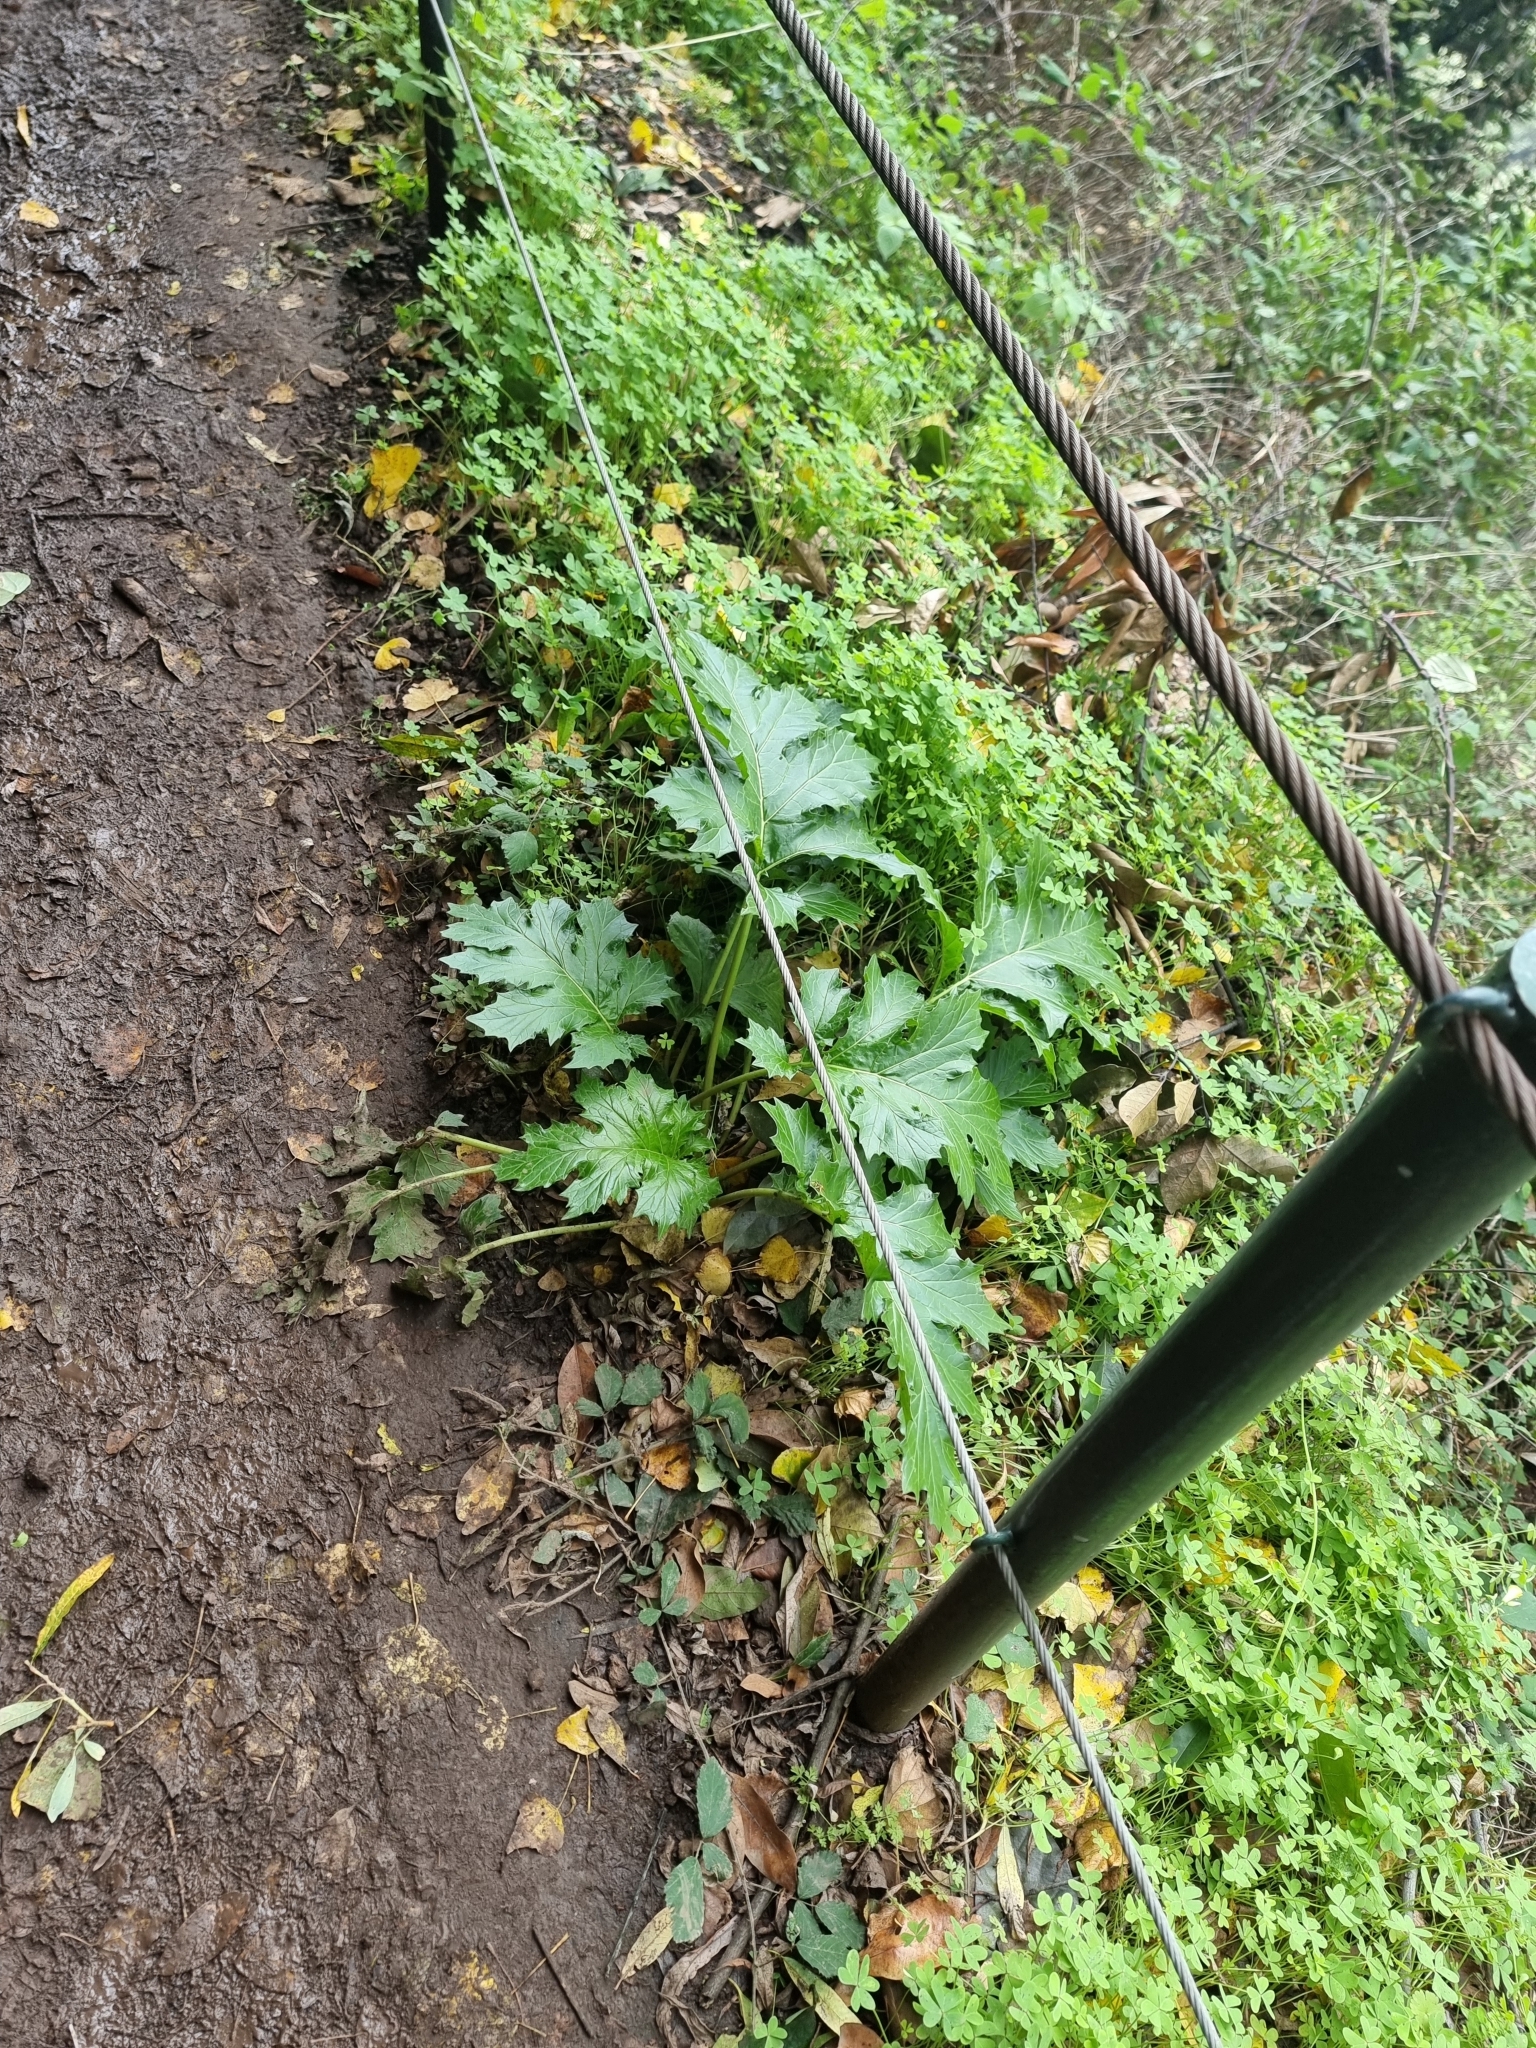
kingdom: Plantae
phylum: Tracheophyta
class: Magnoliopsida
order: Lamiales
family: Acanthaceae
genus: Acanthus
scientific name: Acanthus mollis
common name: Bear's-breech
